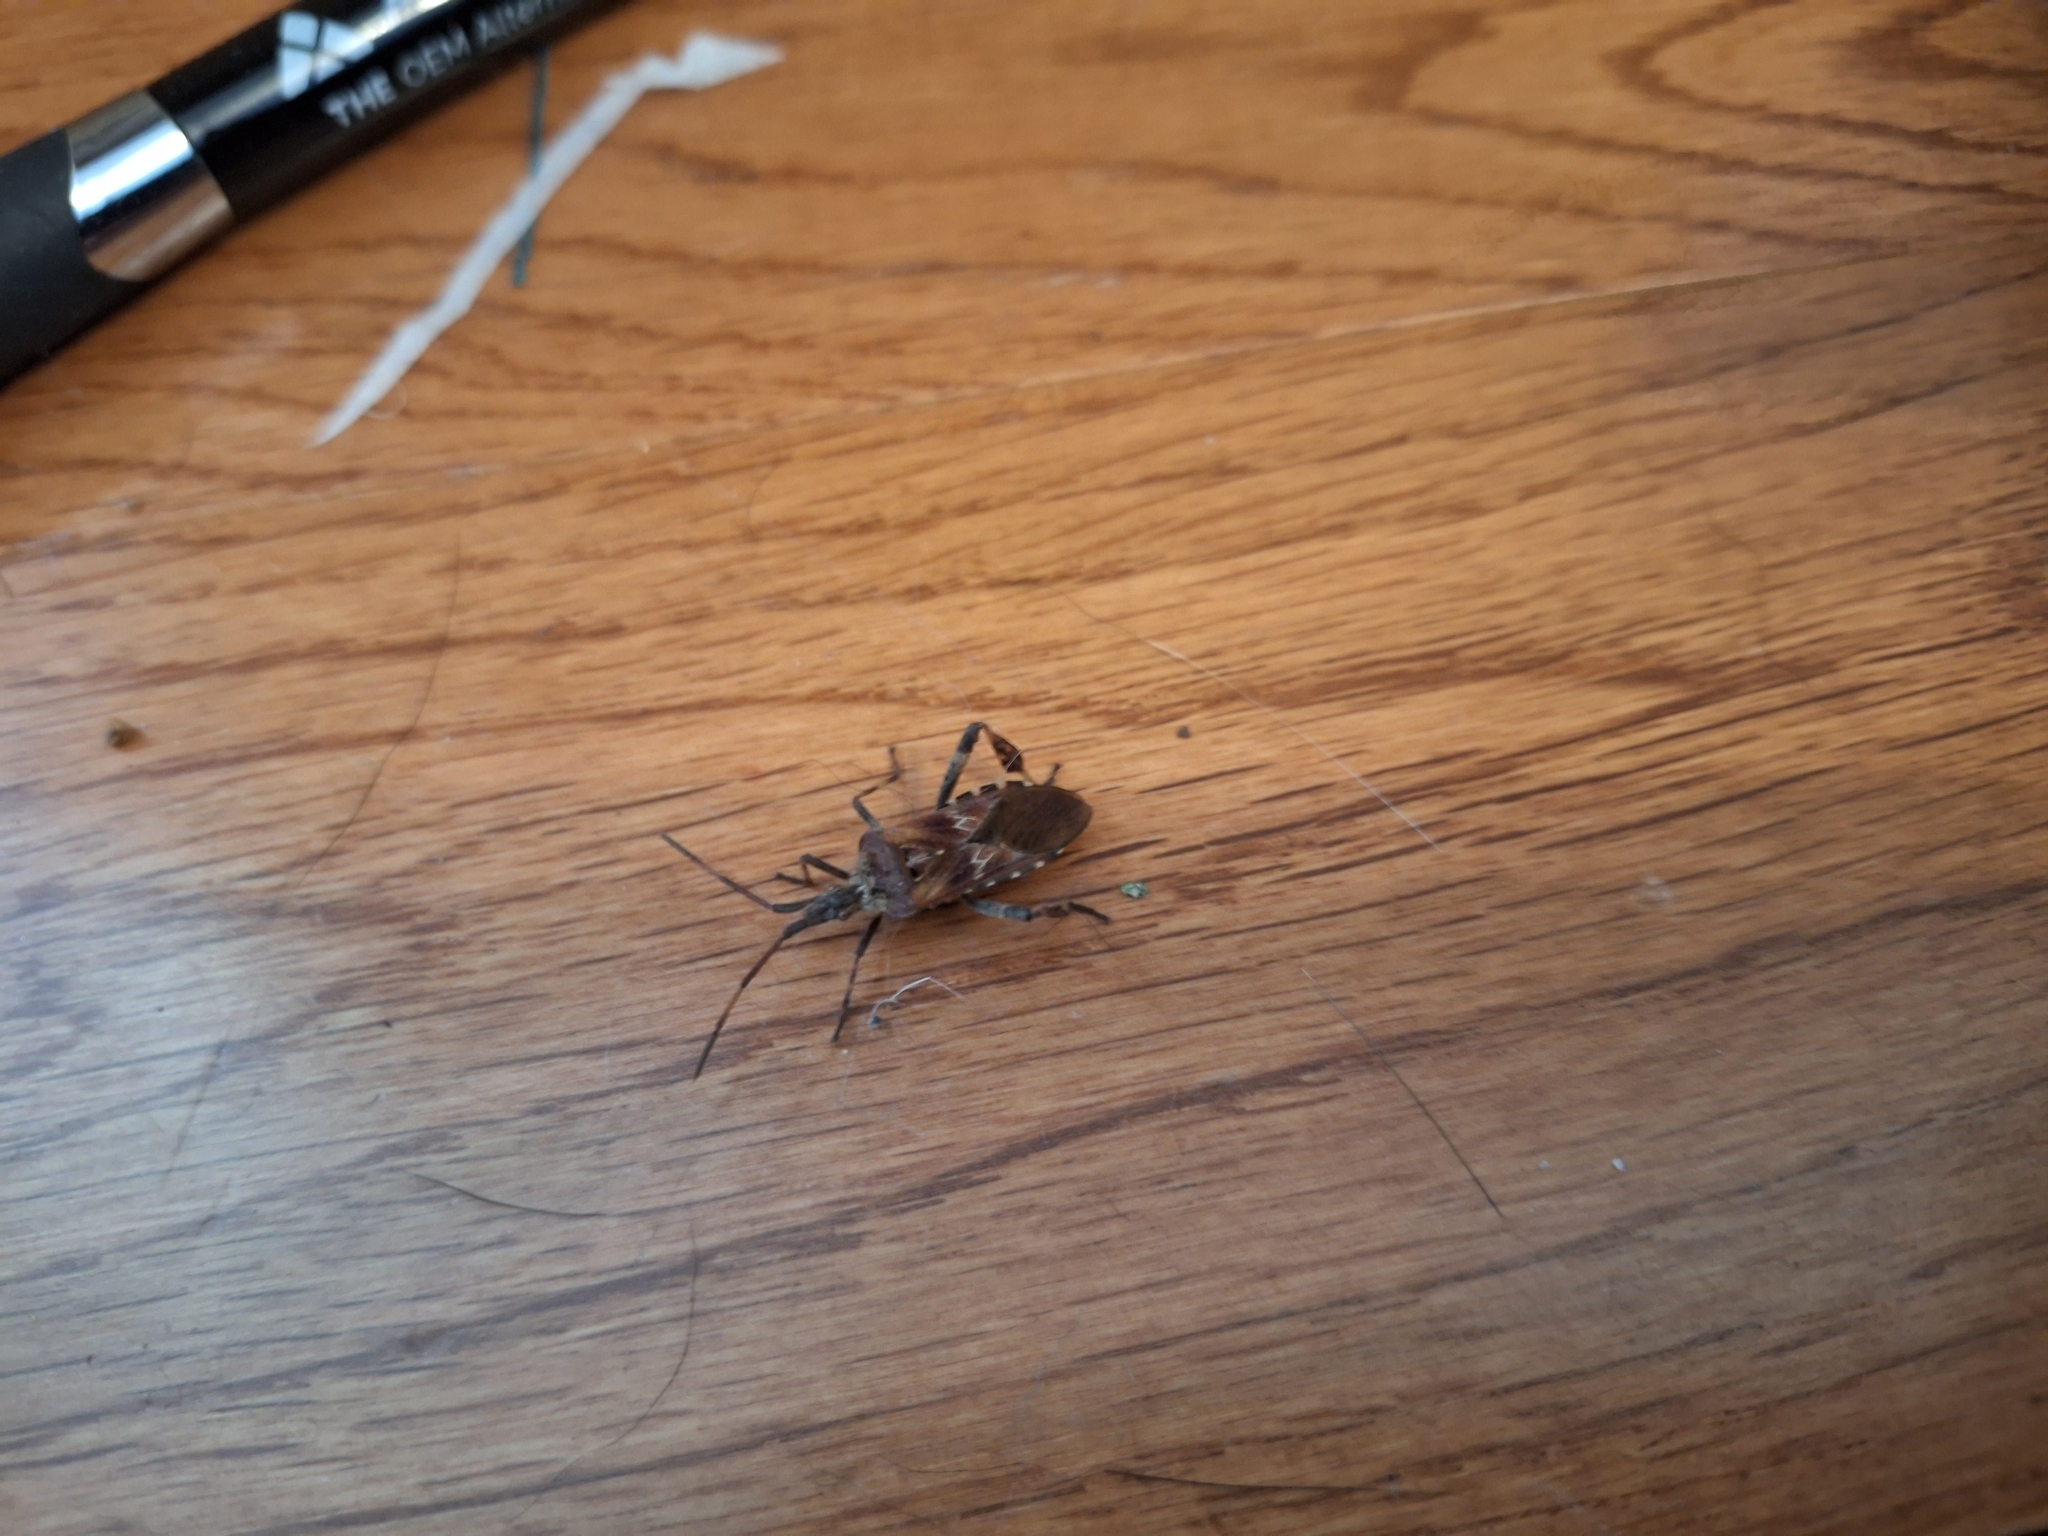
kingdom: Animalia
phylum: Arthropoda
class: Insecta
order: Hemiptera
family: Coreidae
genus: Leptoglossus
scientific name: Leptoglossus occidentalis
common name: Western conifer-seed bug
